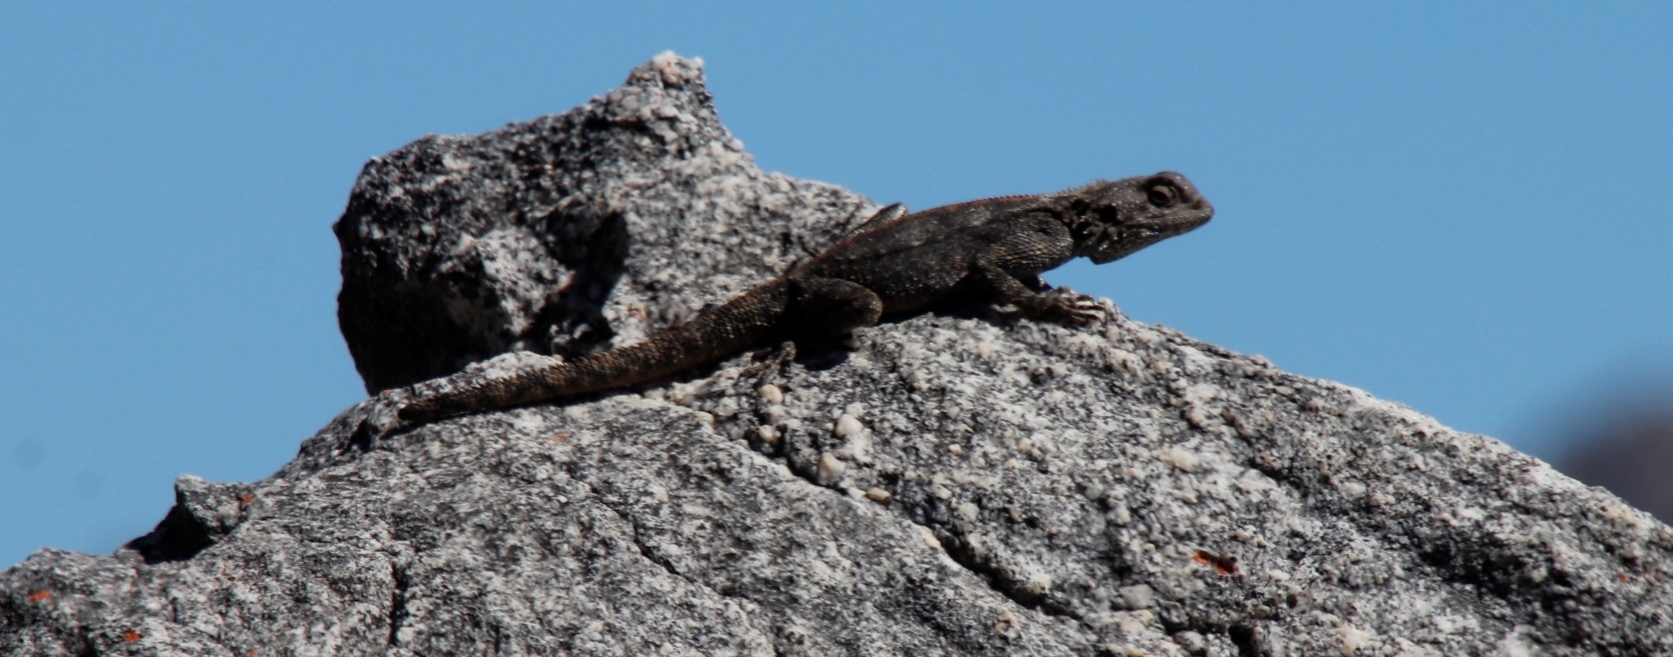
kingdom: Animalia
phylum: Chordata
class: Squamata
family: Agamidae
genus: Agama
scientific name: Agama atra
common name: Southern african rock agama
